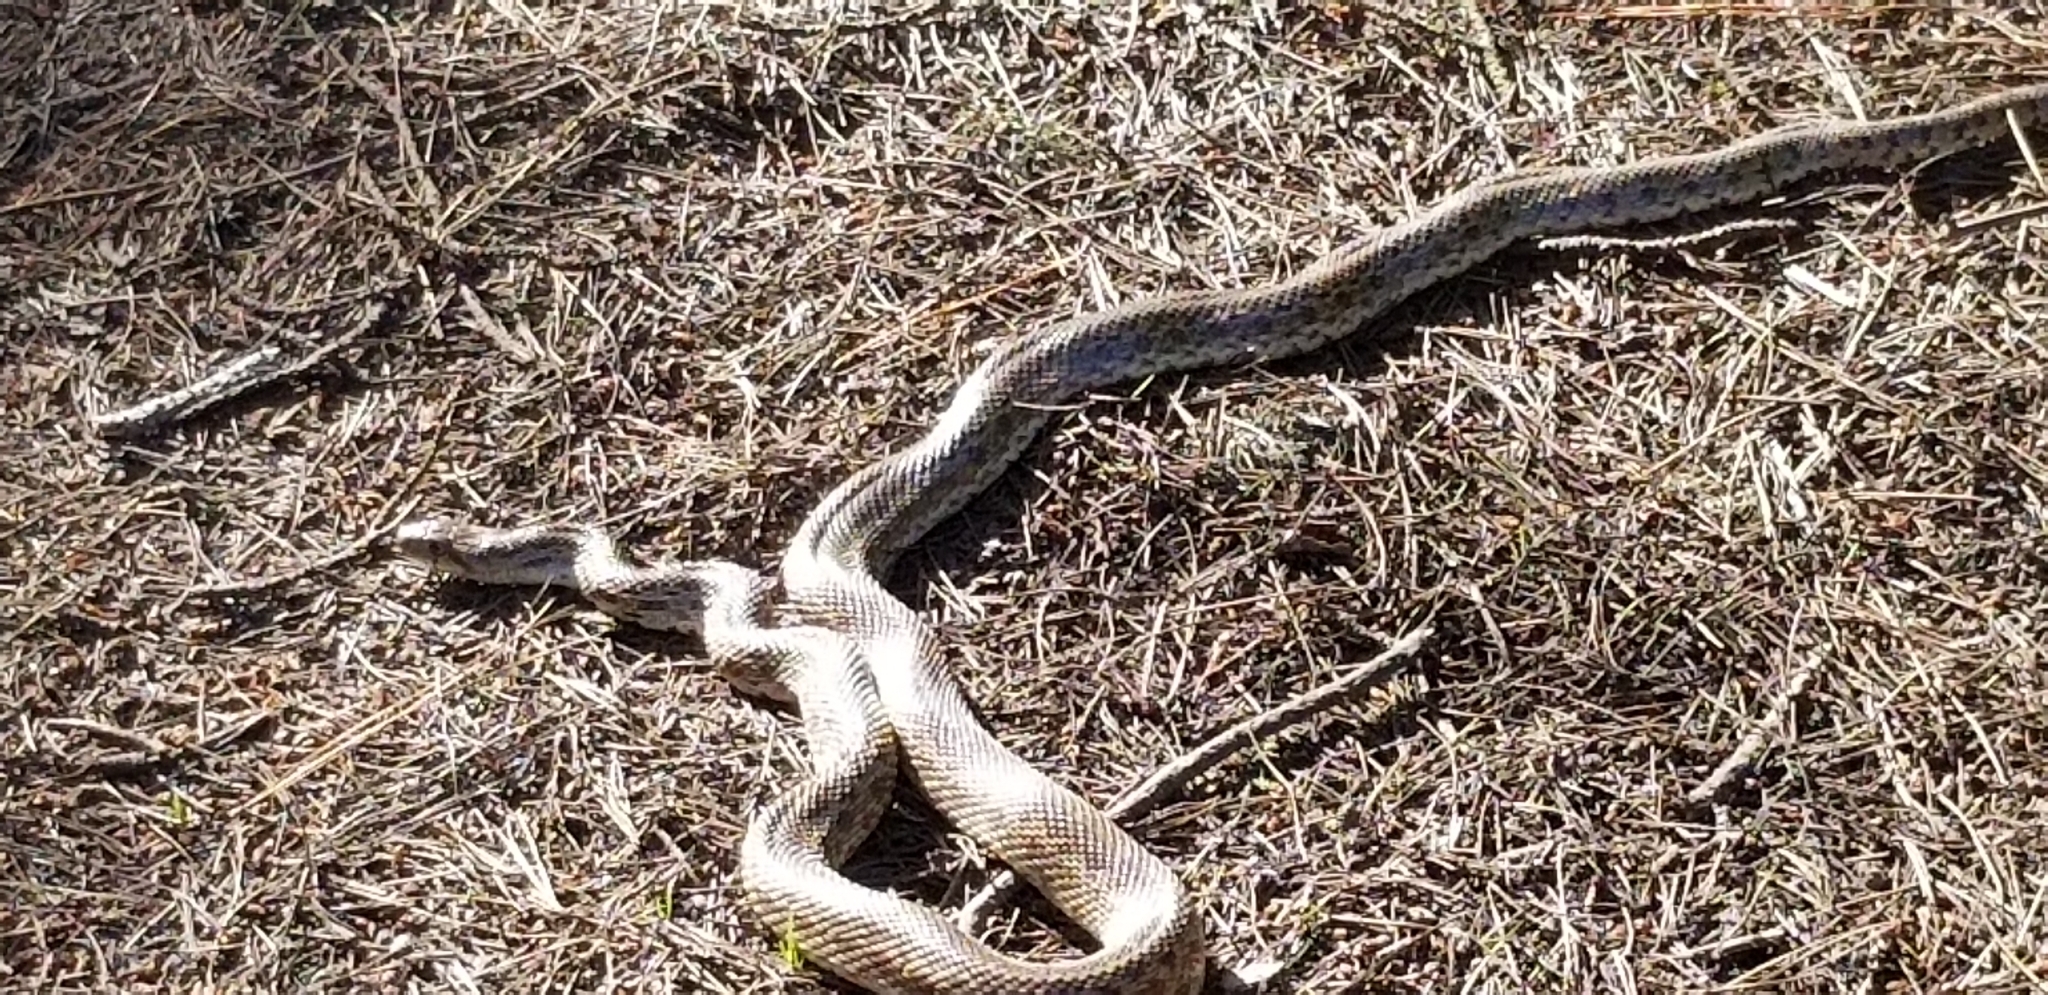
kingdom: Animalia
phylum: Chordata
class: Squamata
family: Colubridae
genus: Pituophis
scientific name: Pituophis catenifer
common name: Gopher snake
